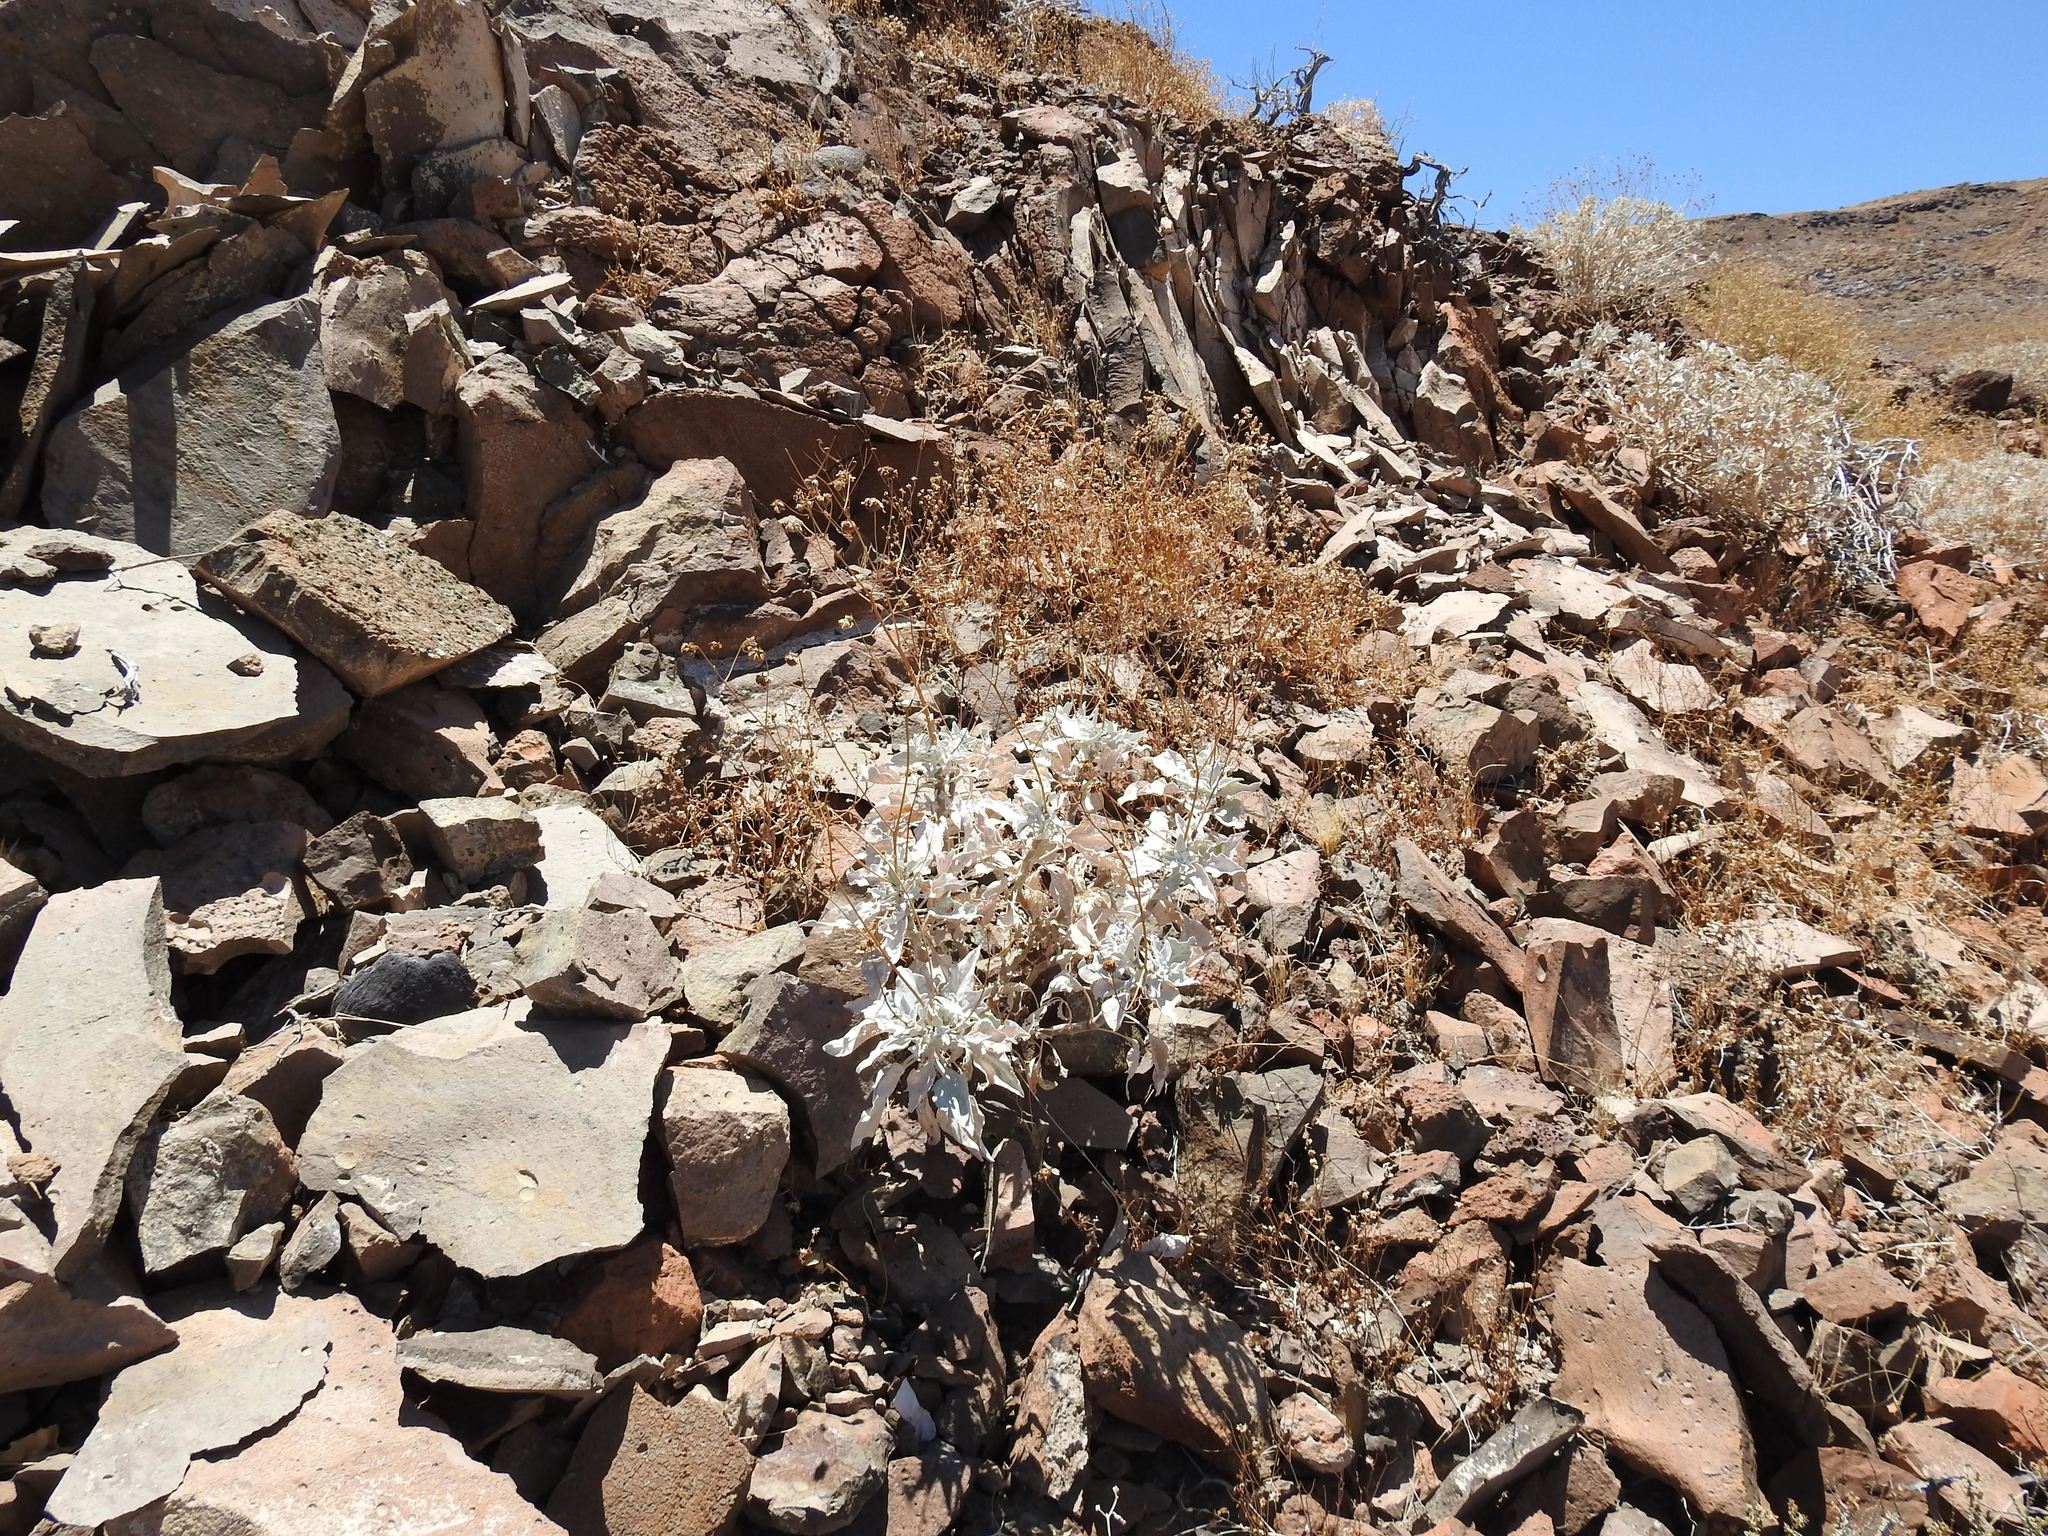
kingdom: Plantae
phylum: Tracheophyta
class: Magnoliopsida
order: Asterales
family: Asteraceae
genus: Encelia
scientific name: Encelia farinosa
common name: Brittlebush
